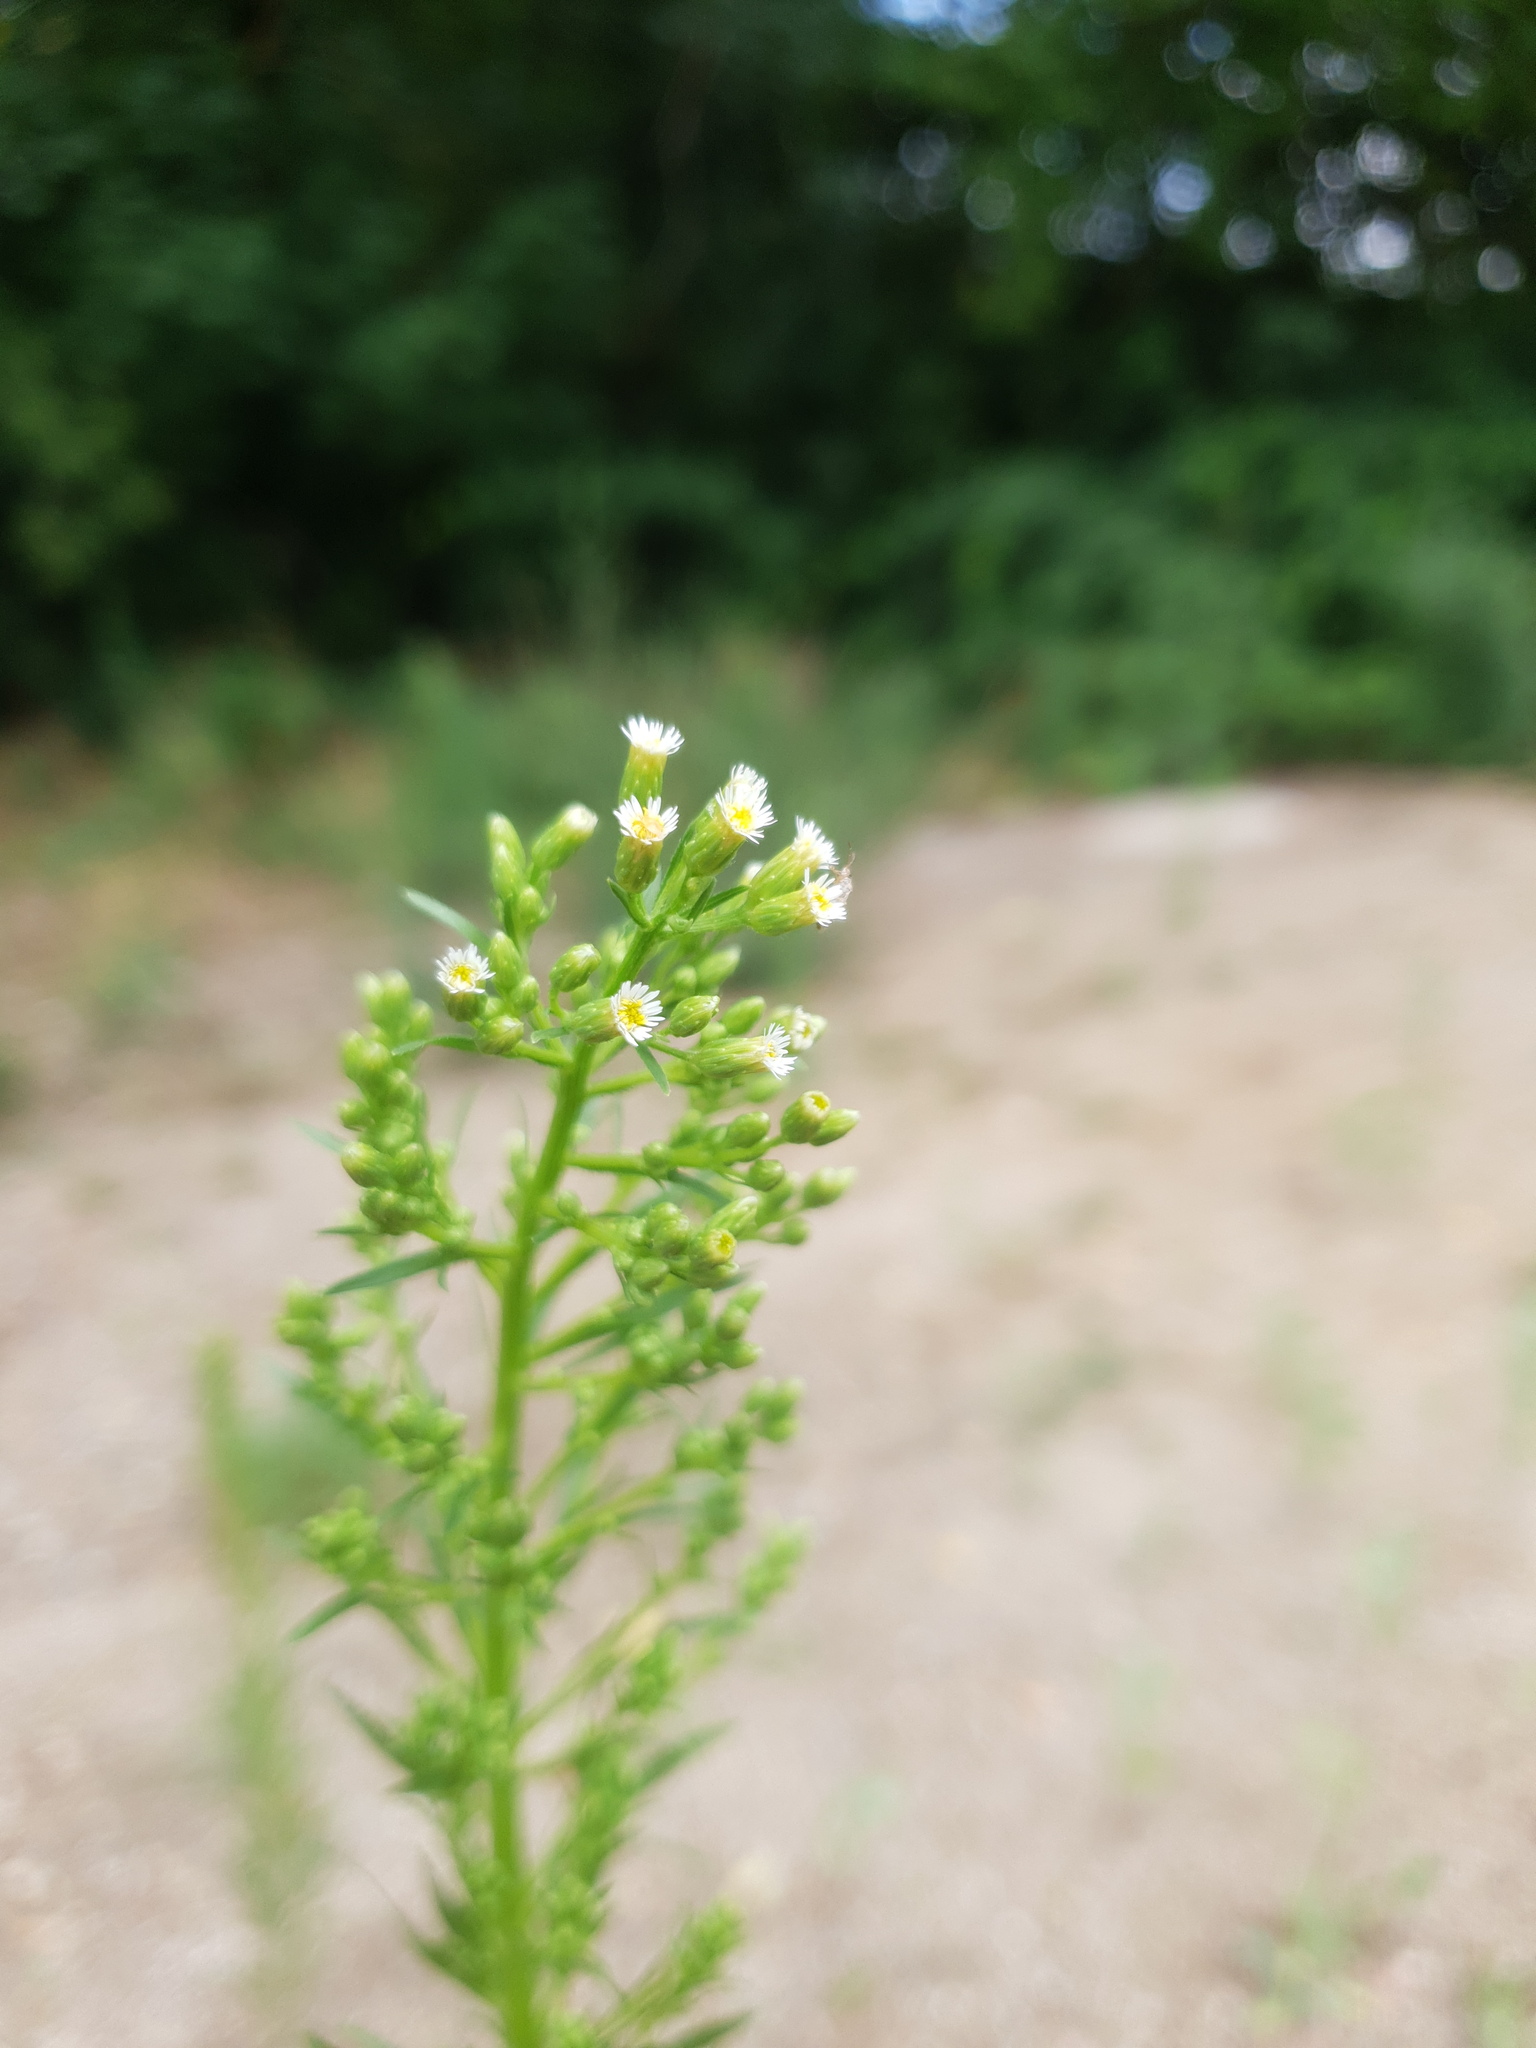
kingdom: Plantae
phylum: Tracheophyta
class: Magnoliopsida
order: Asterales
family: Asteraceae
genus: Erigeron
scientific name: Erigeron canadensis
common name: Canadian fleabane
